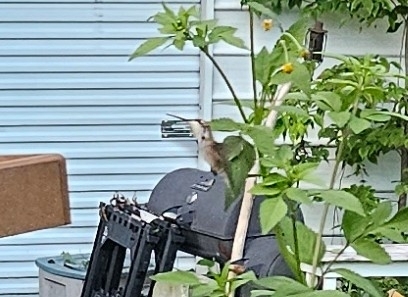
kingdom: Animalia
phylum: Chordata
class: Aves
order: Apodiformes
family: Trochilidae
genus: Archilochus
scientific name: Archilochus colubris
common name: Ruby-throated hummingbird
